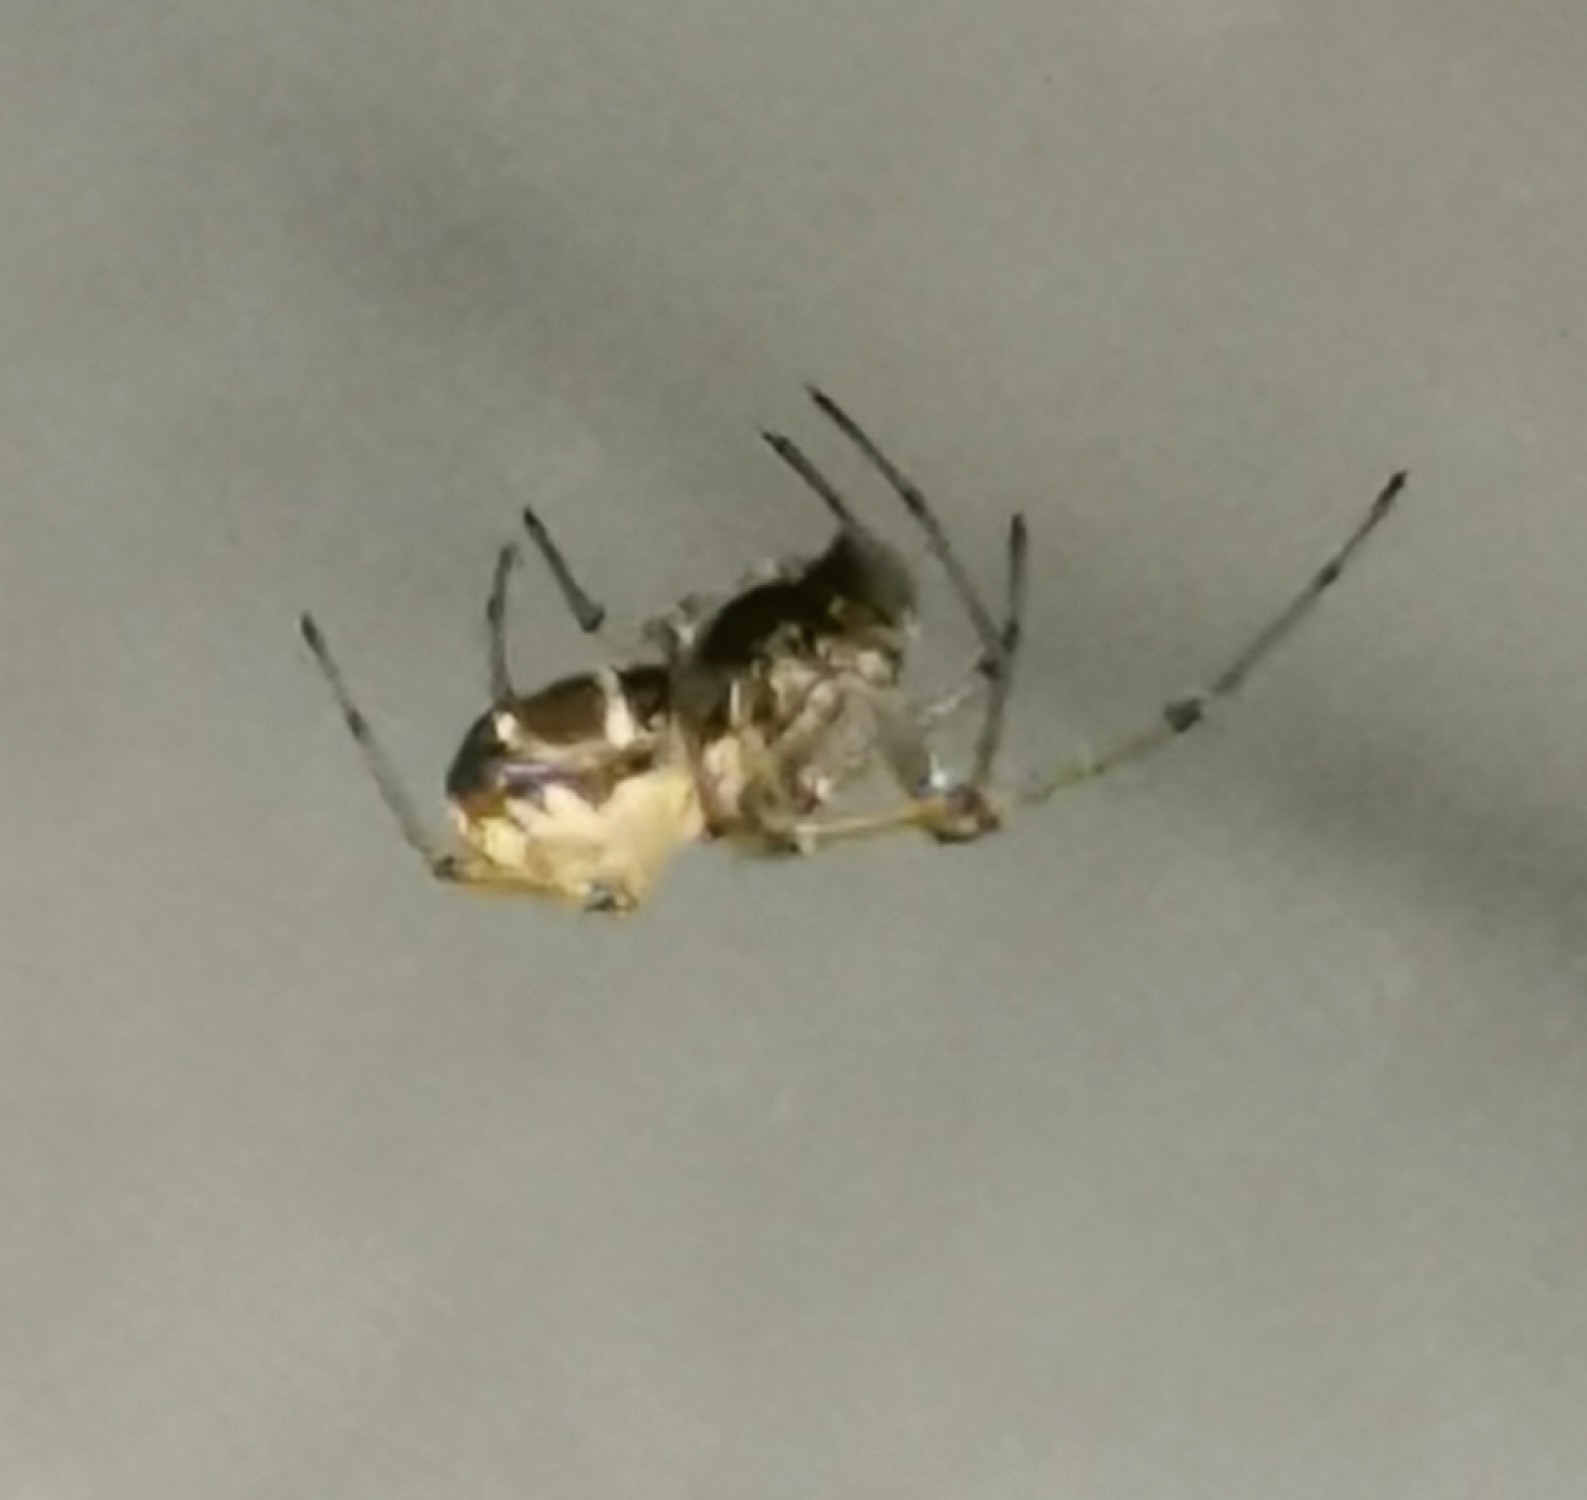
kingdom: Animalia
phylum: Arthropoda
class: Arachnida
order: Araneae
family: Linyphiidae
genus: Neriene
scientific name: Neriene peltata
